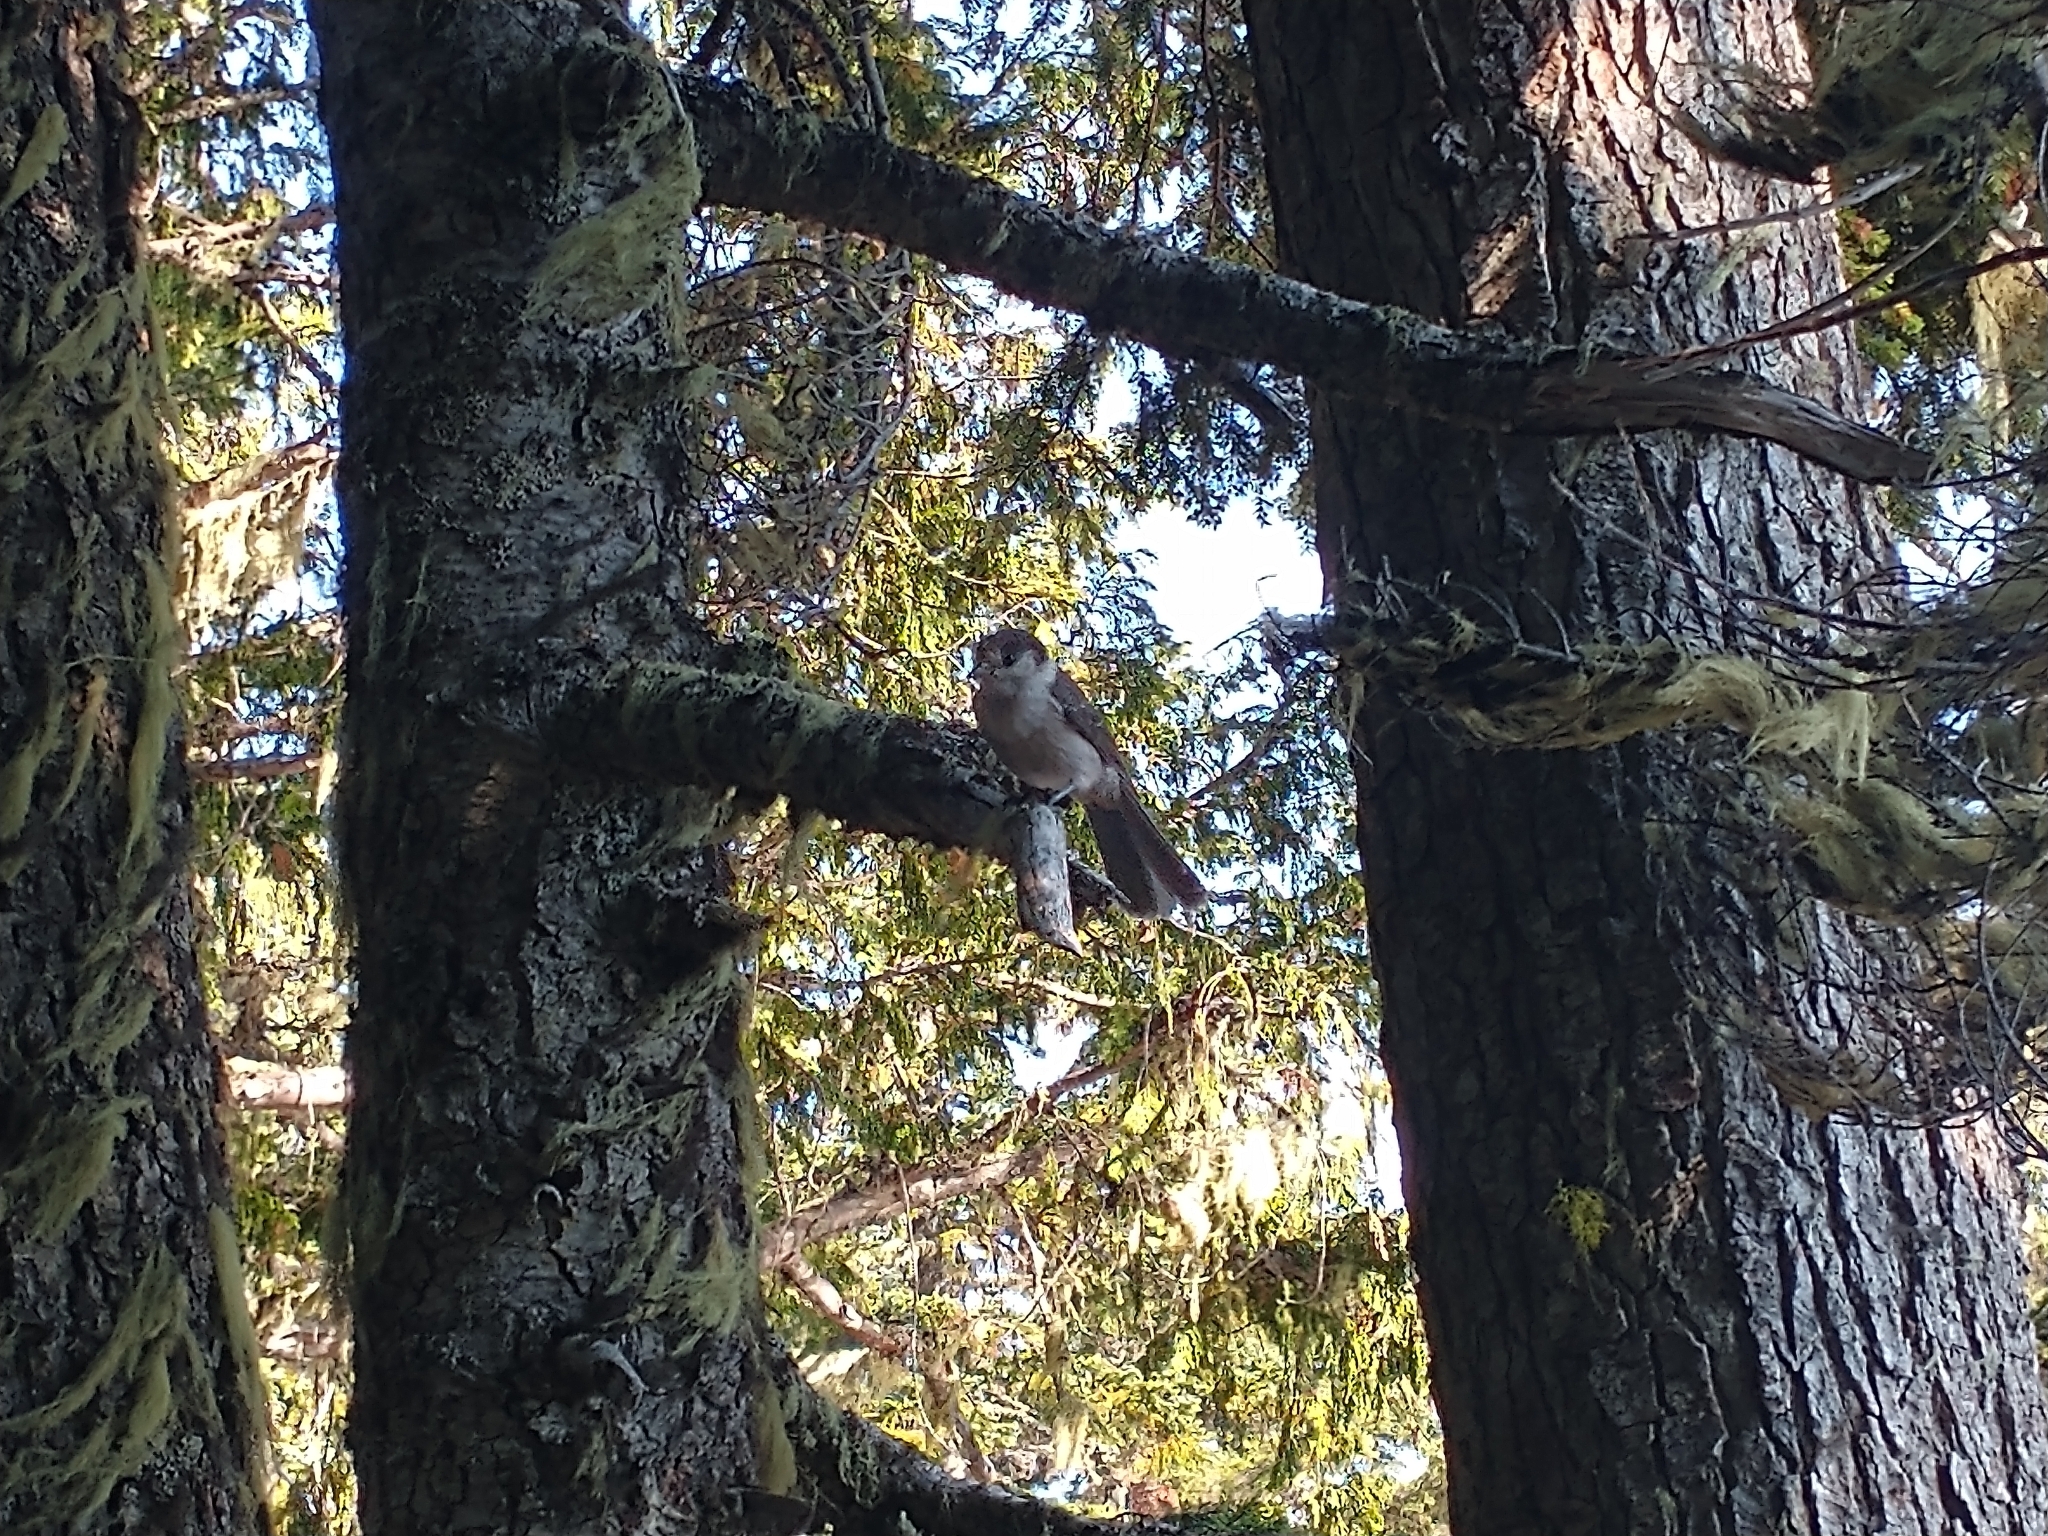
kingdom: Animalia
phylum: Chordata
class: Aves
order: Passeriformes
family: Corvidae
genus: Perisoreus
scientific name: Perisoreus canadensis
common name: Gray jay
